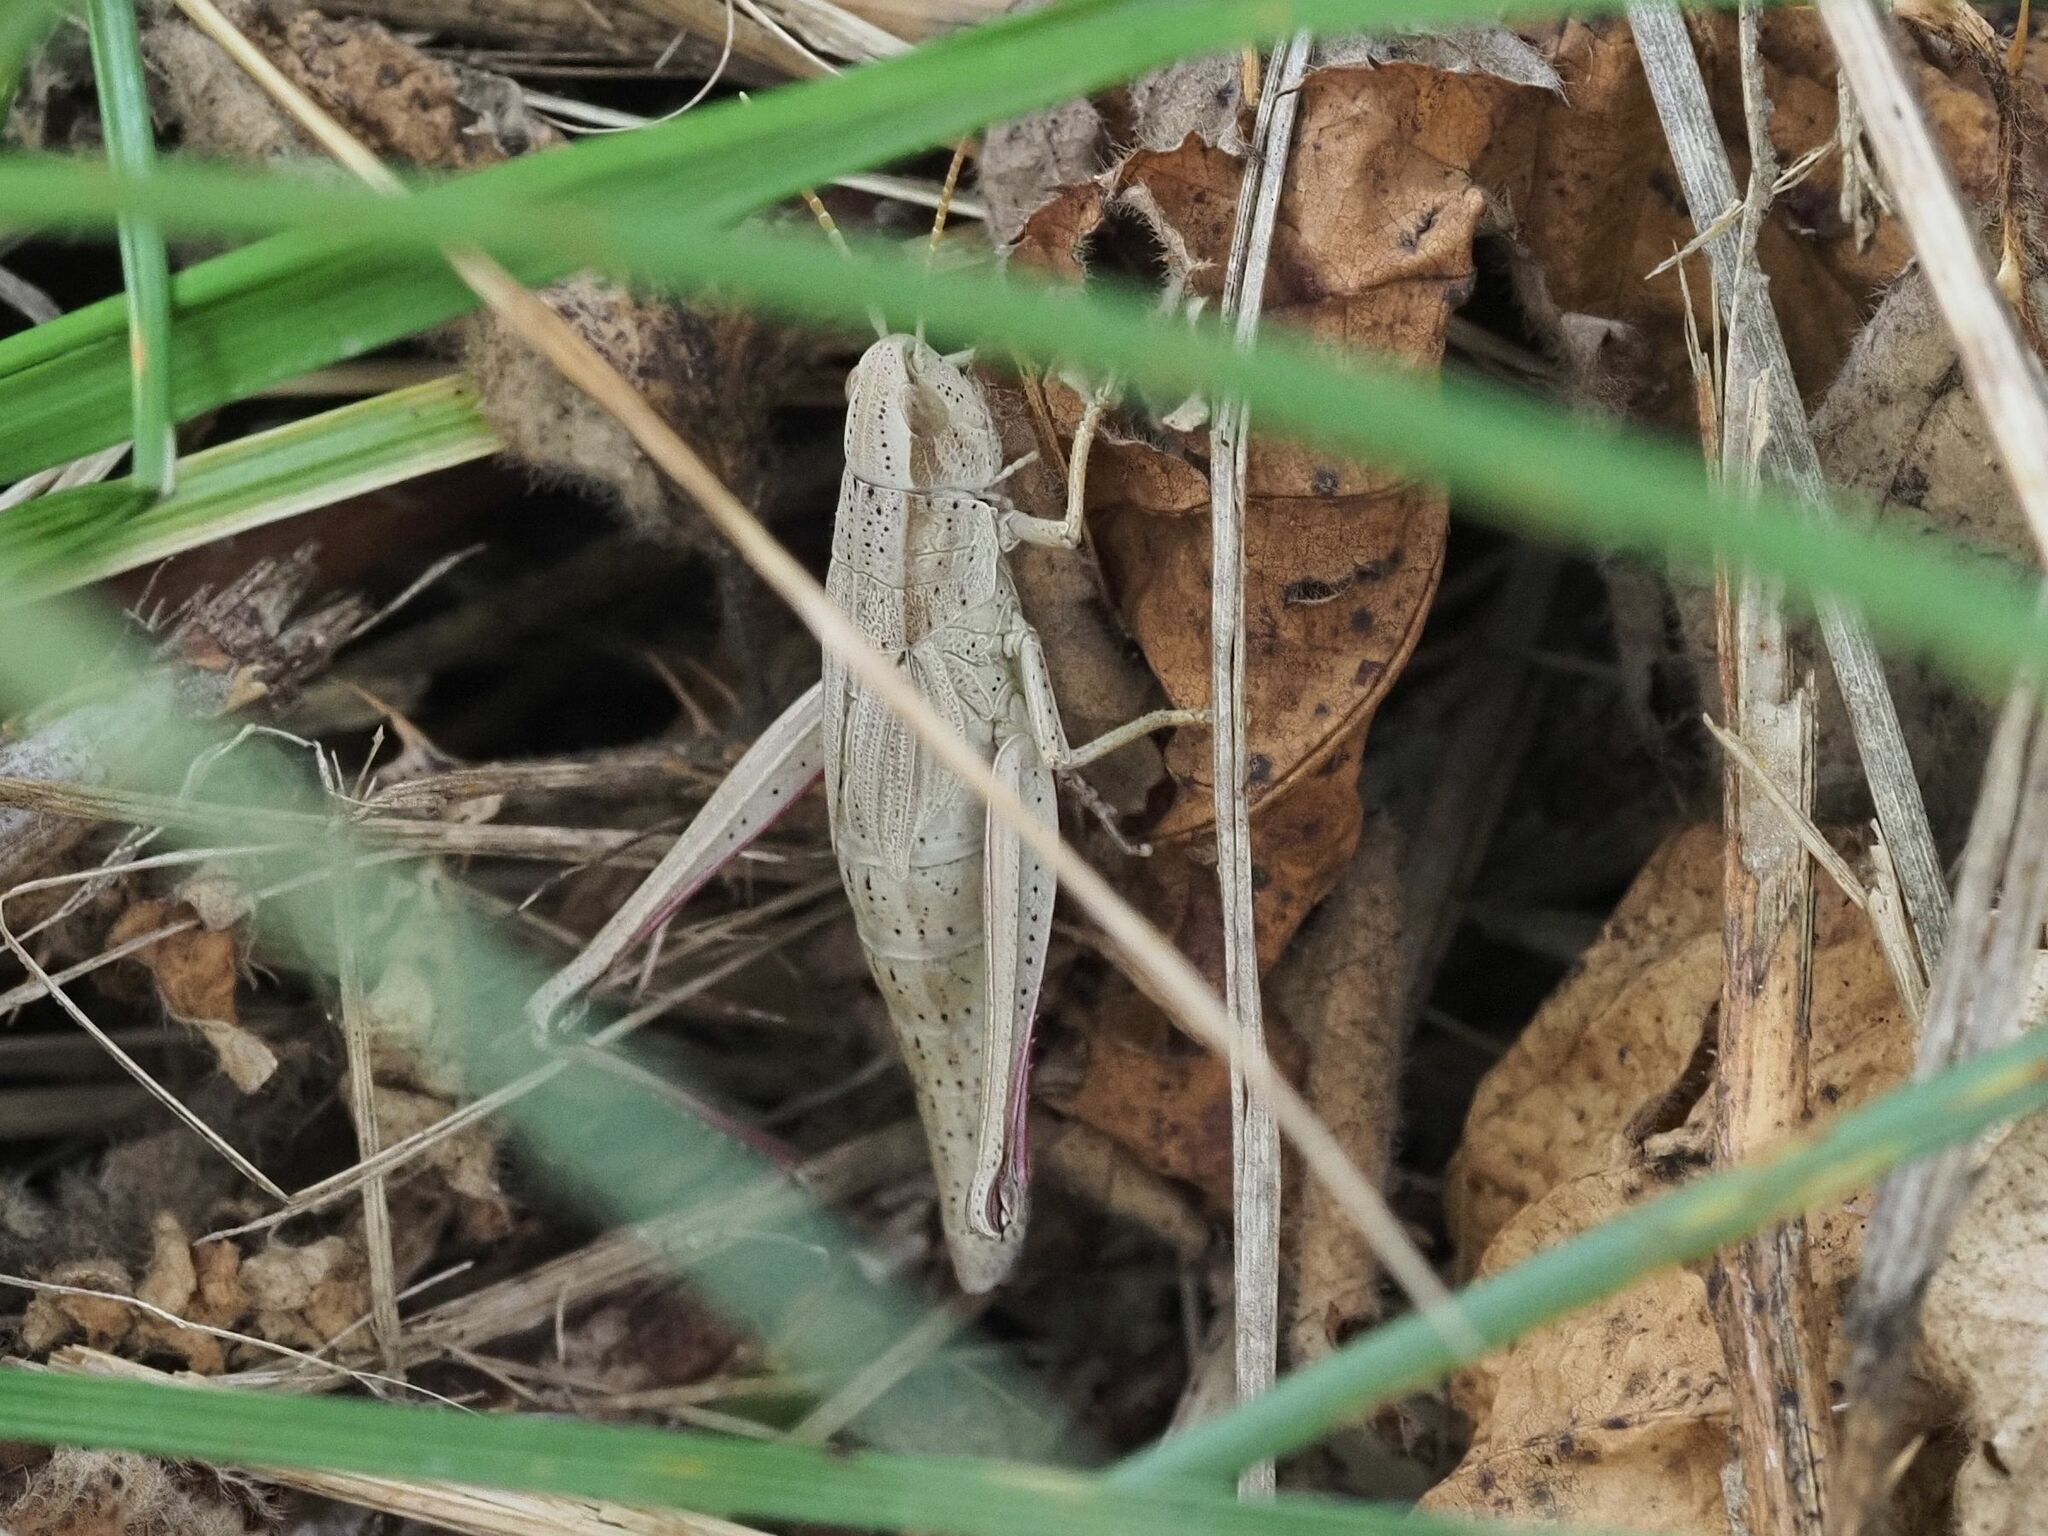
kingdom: Animalia
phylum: Arthropoda
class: Insecta
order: Orthoptera
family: Acrididae
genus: Chrysochraon
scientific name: Chrysochraon dispar
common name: Large gold grasshopper
